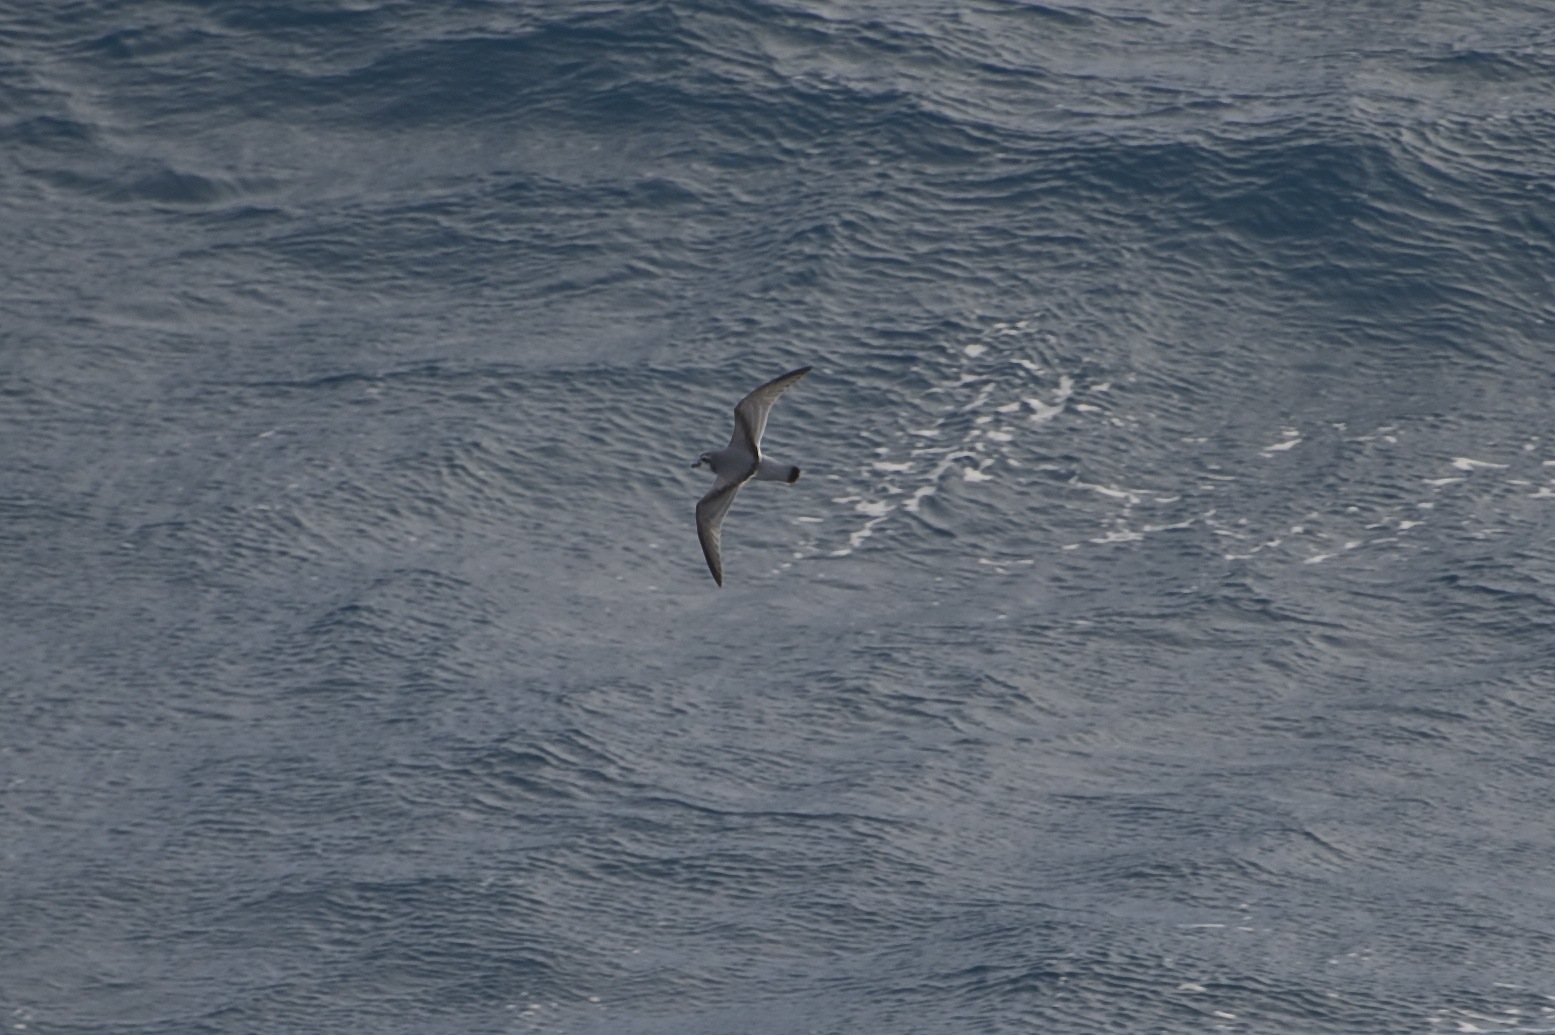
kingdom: Animalia
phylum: Chordata
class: Aves
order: Procellariiformes
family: Procellariidae
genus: Pachyptila
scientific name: Pachyptila desolata
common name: Antarctic prion
